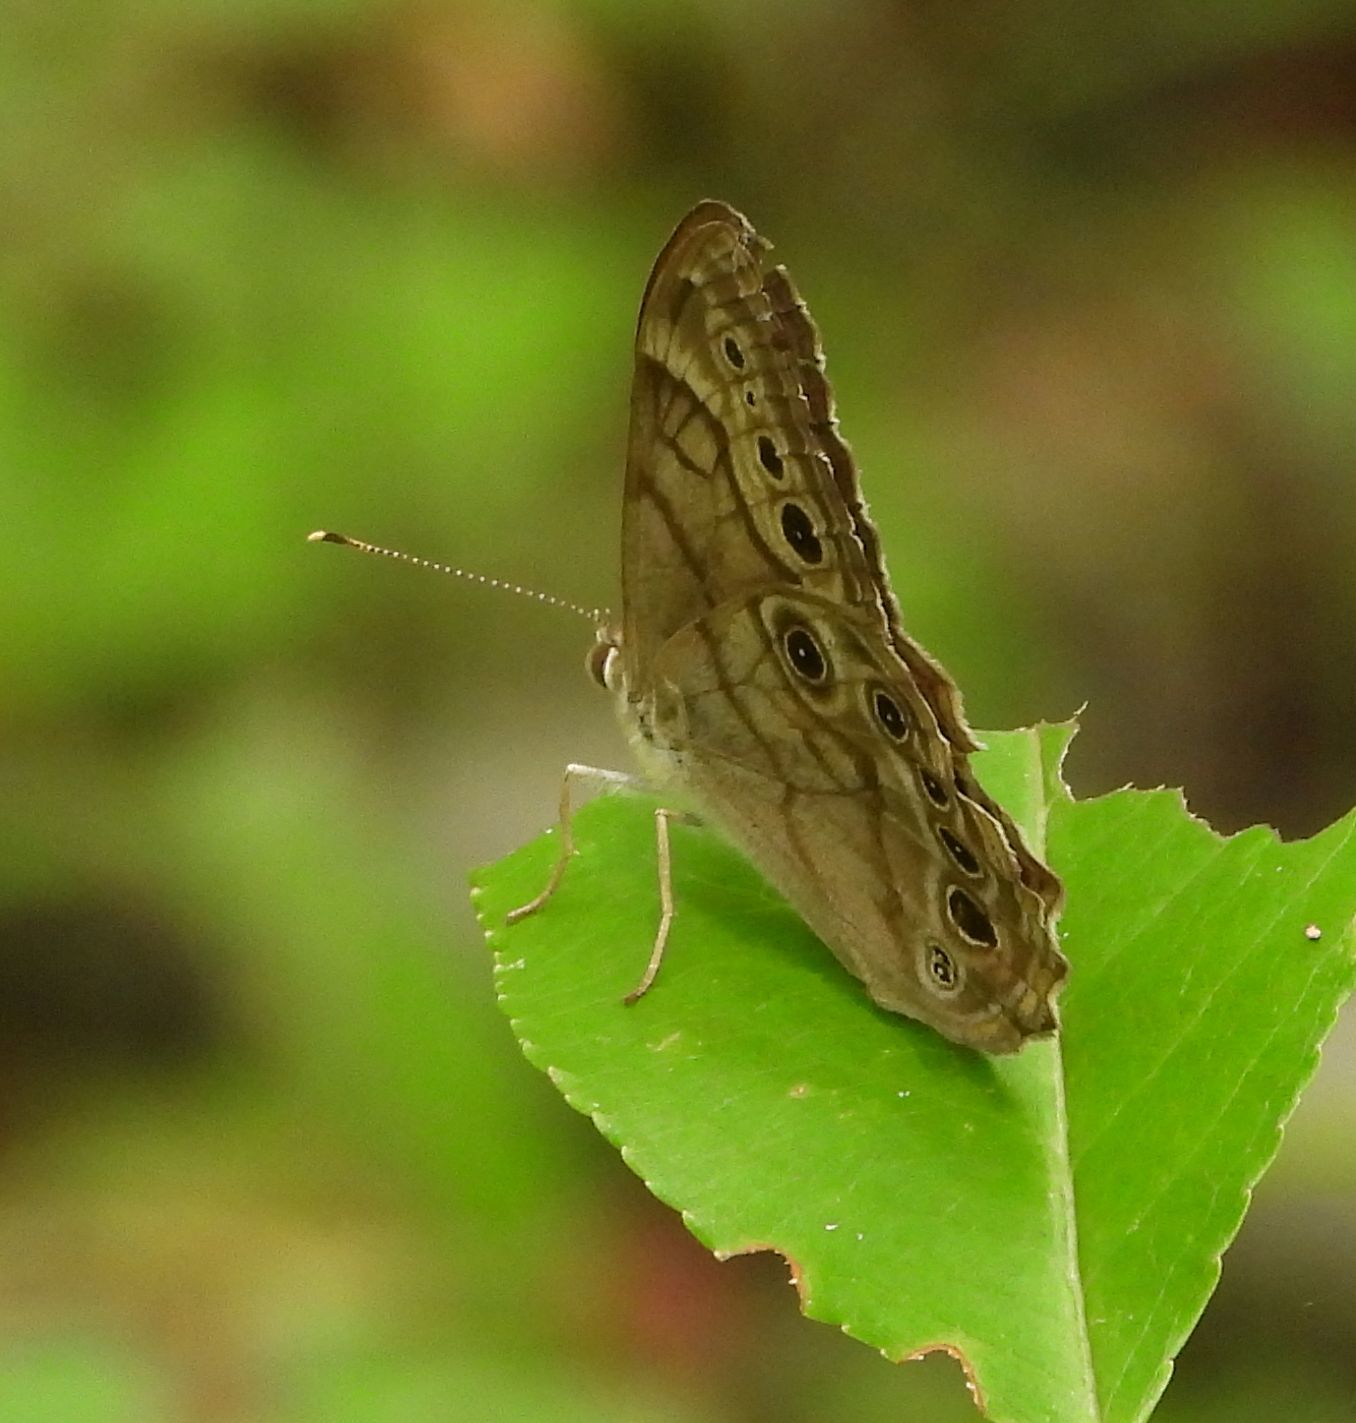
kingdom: Animalia
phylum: Arthropoda
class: Insecta
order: Lepidoptera
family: Nymphalidae
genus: Lethe
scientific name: Lethe anthedon
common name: Northern pearly-eye
